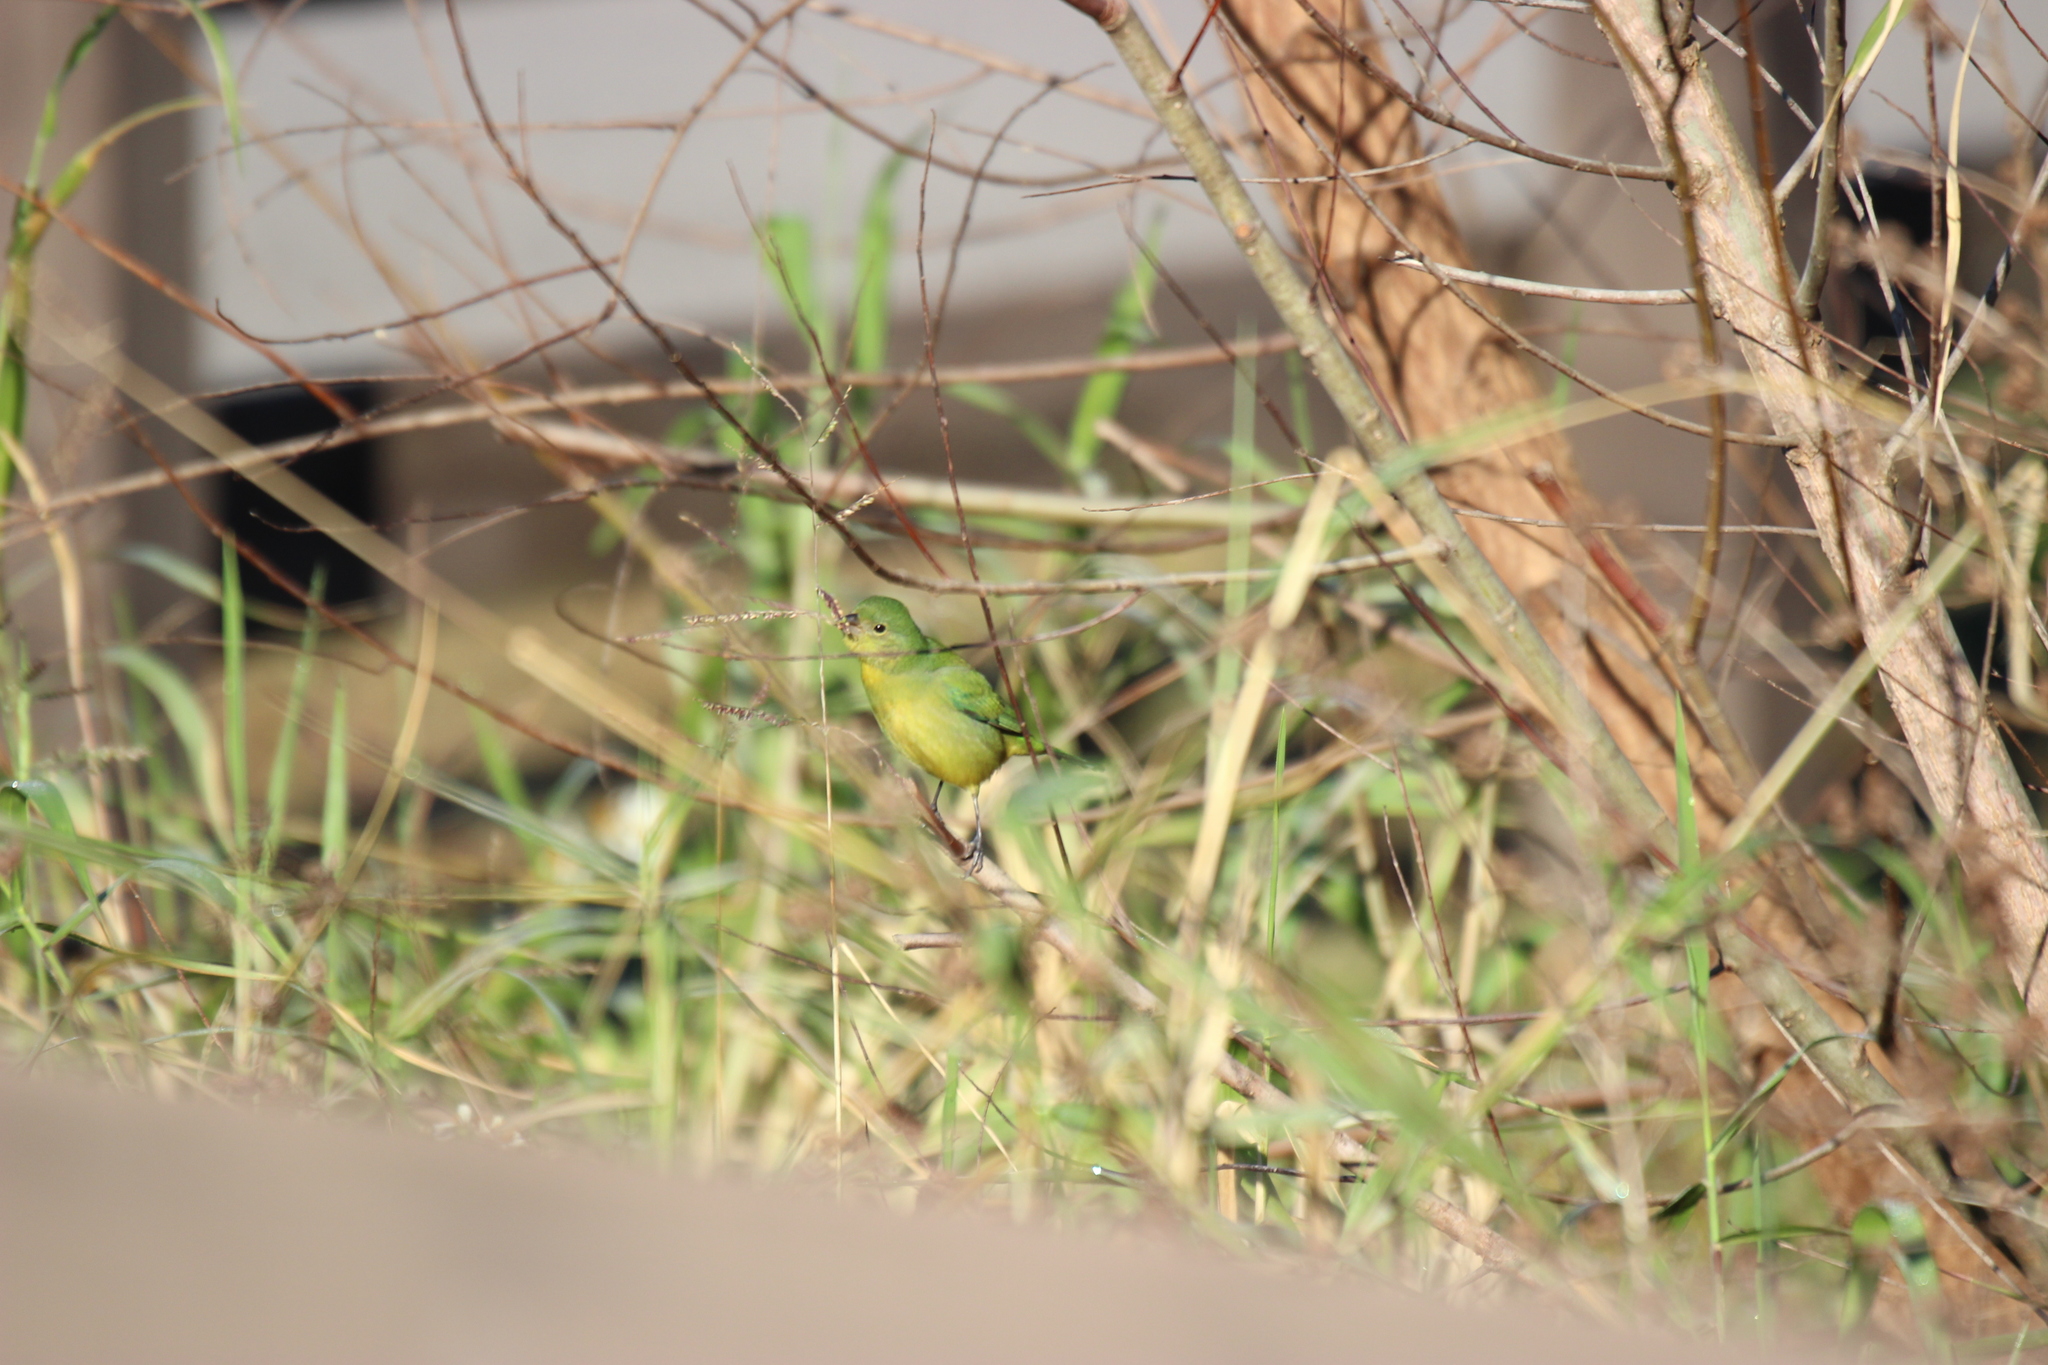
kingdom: Animalia
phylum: Chordata
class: Aves
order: Passeriformes
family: Cardinalidae
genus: Passerina
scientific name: Passerina ciris
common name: Painted bunting
